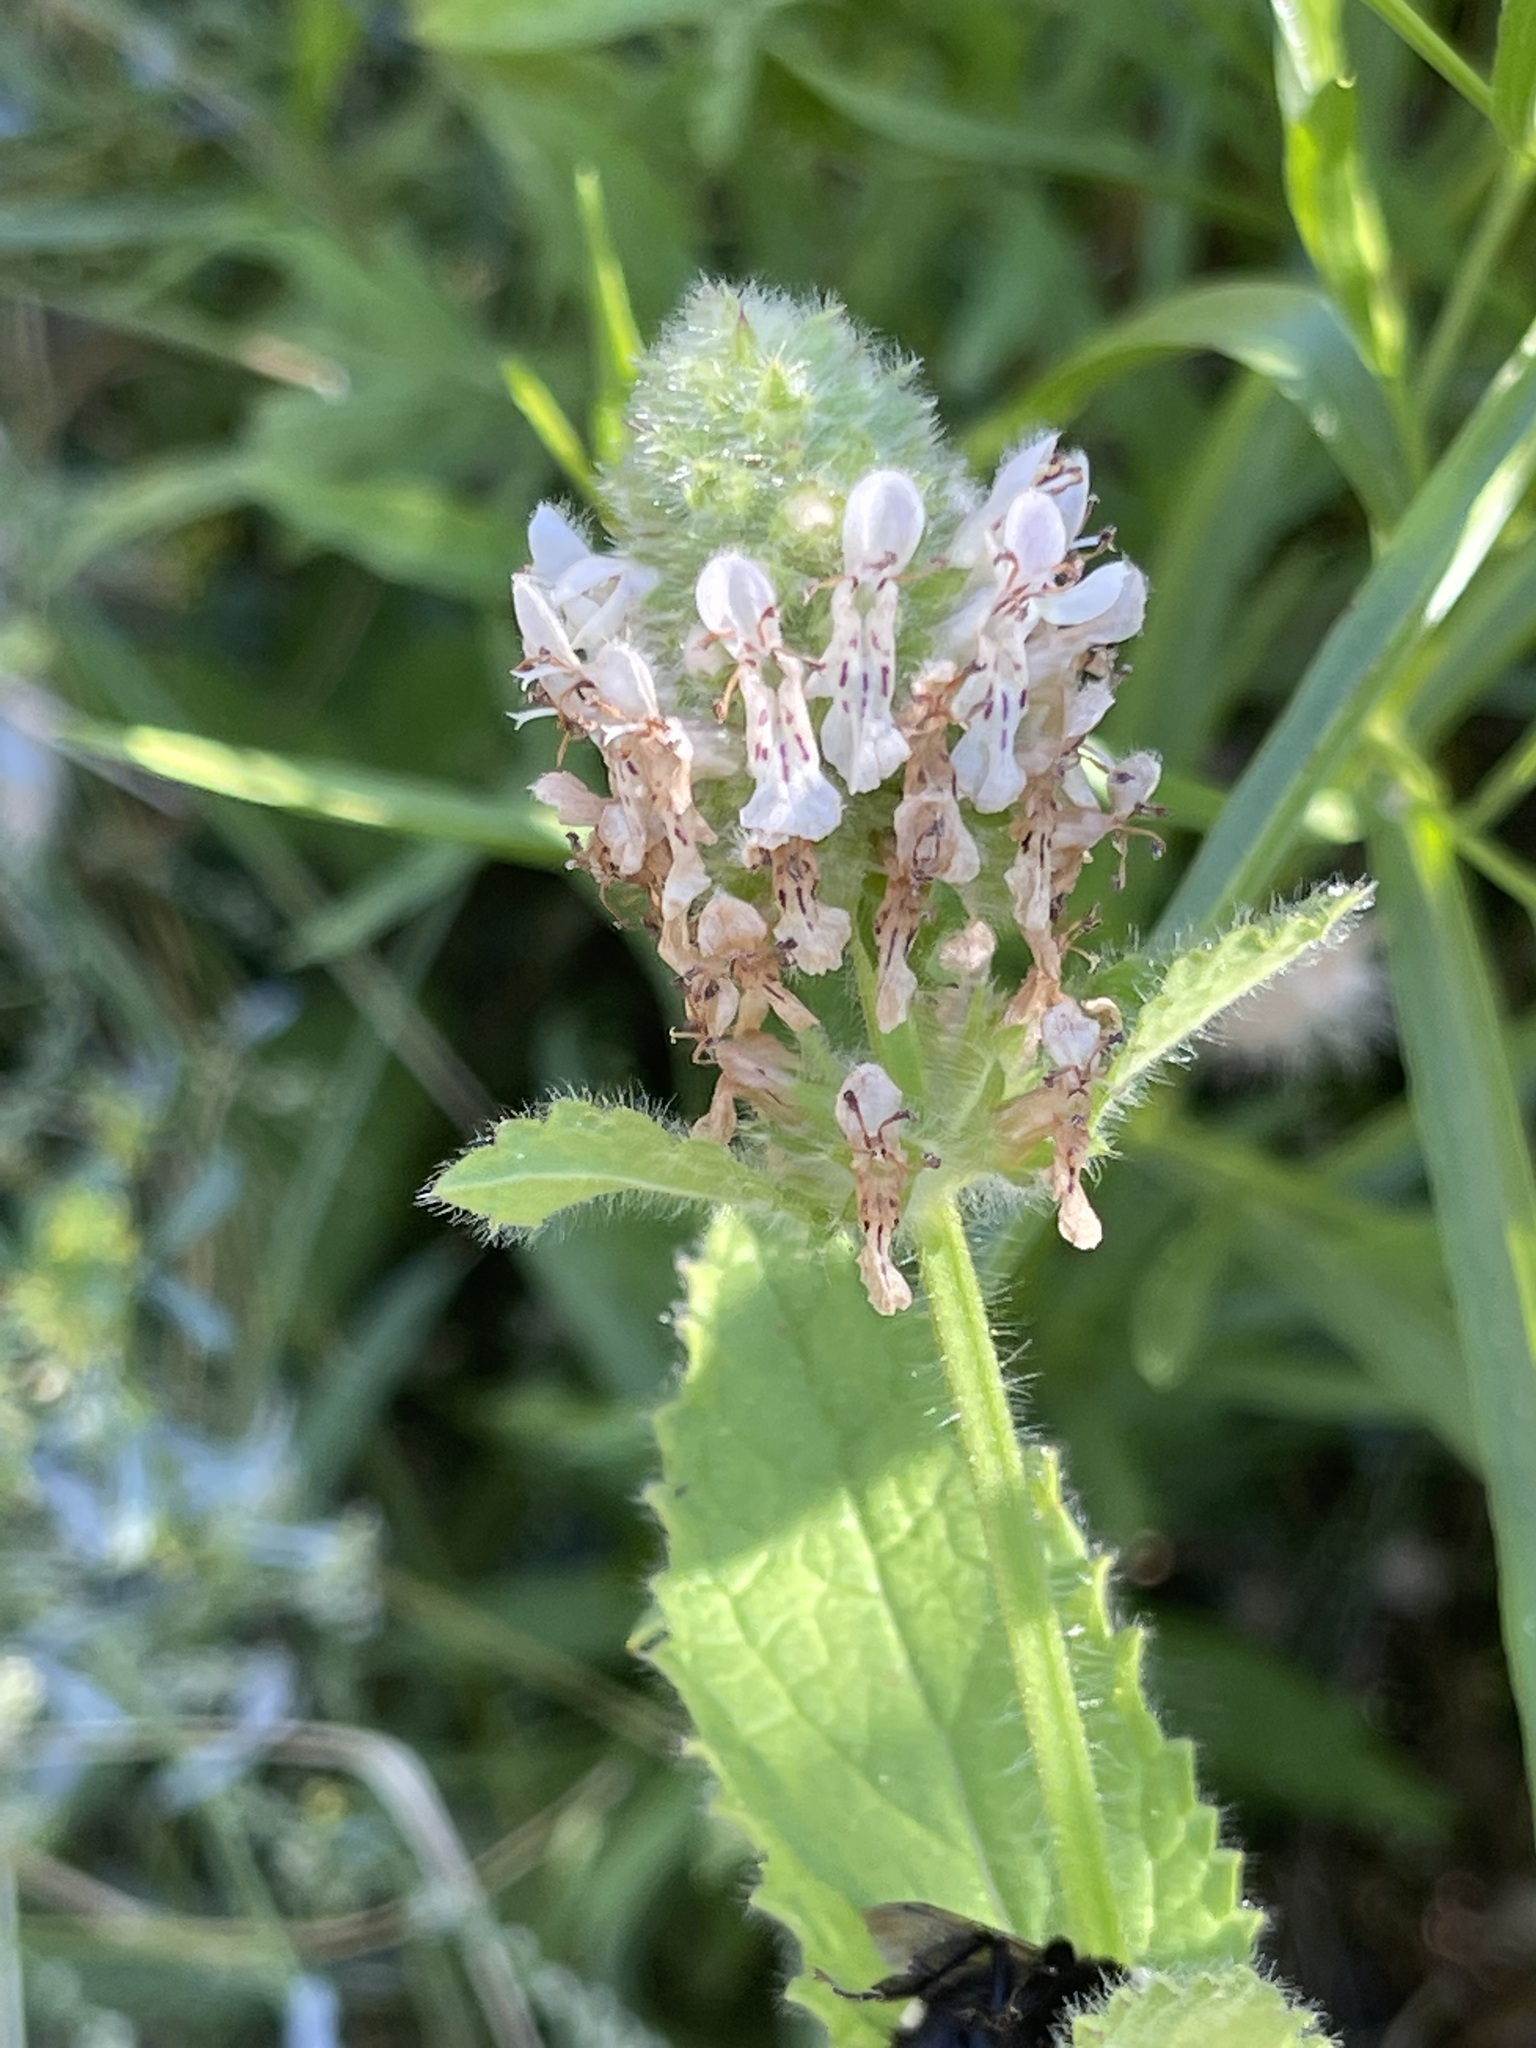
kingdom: Plantae
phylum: Tracheophyta
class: Magnoliopsida
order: Lamiales
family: Lamiaceae
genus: Stachys
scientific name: Stachys pycnantha
